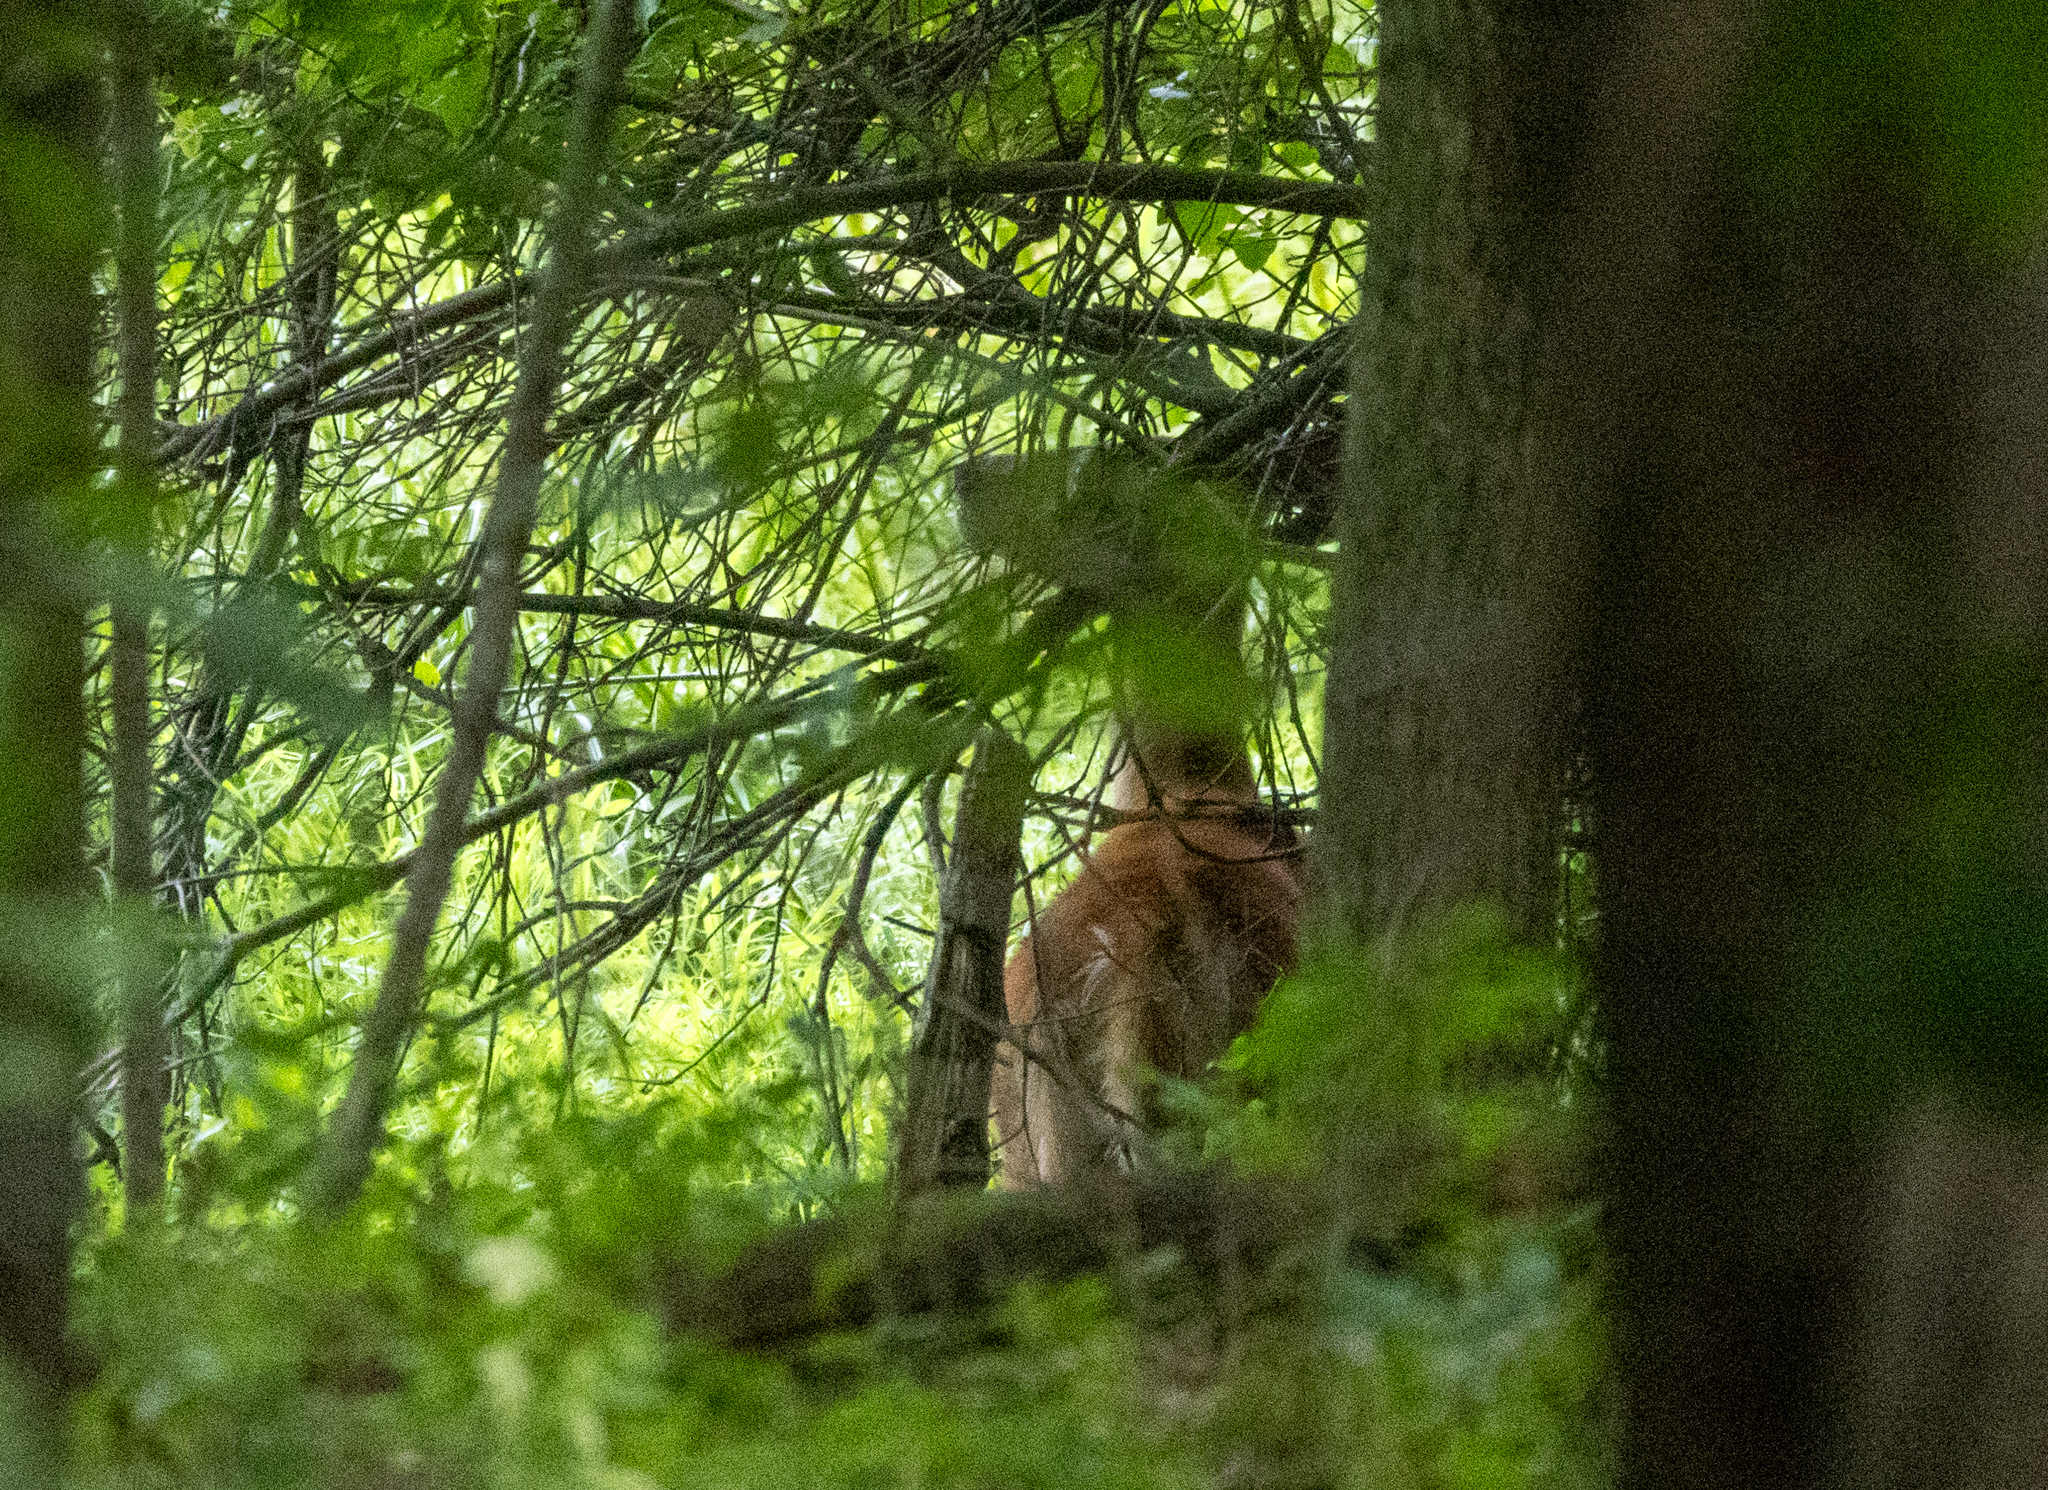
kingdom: Animalia
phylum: Chordata
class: Mammalia
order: Artiodactyla
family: Cervidae
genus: Odocoileus
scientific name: Odocoileus virginianus
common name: White-tailed deer
